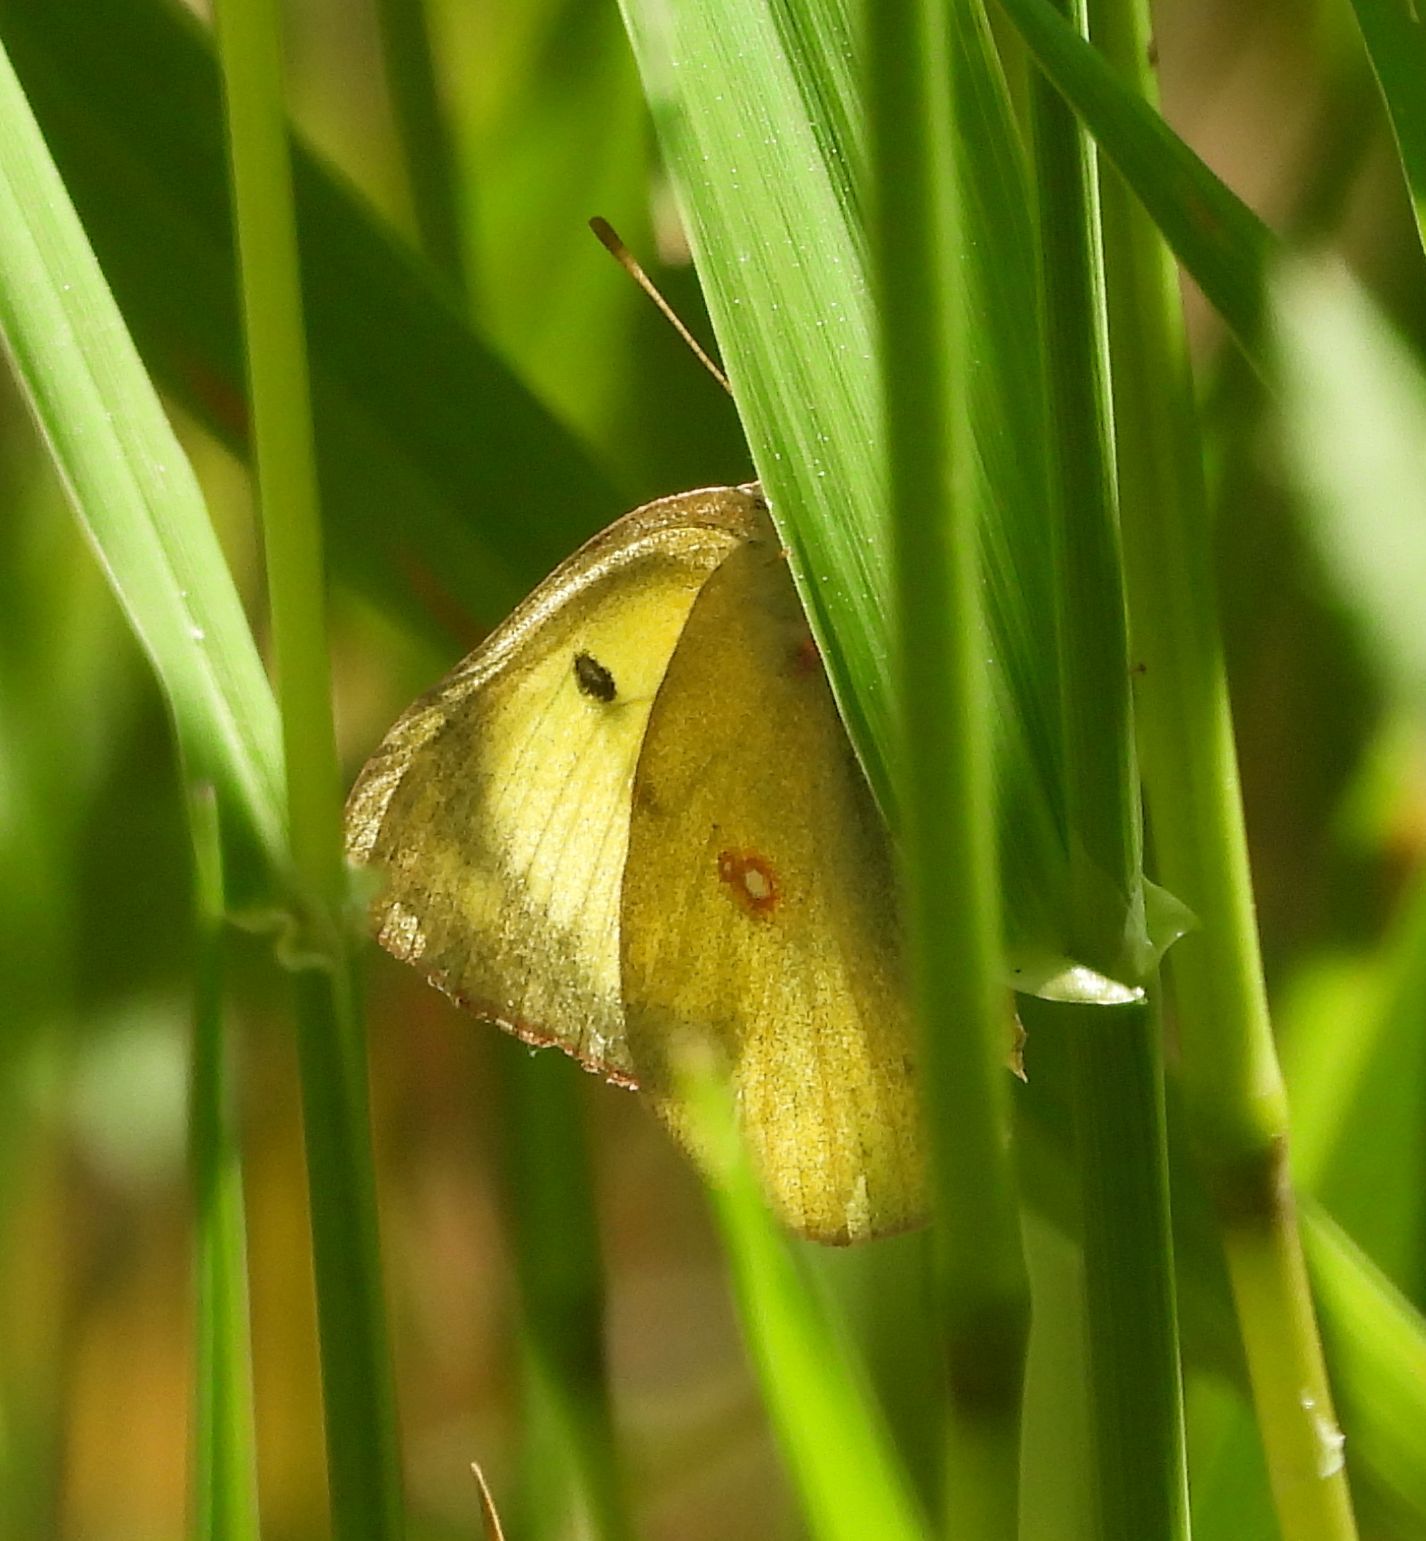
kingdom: Animalia
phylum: Arthropoda
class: Insecta
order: Lepidoptera
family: Pieridae
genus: Colias
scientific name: Colias philodice
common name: Clouded sulphur
